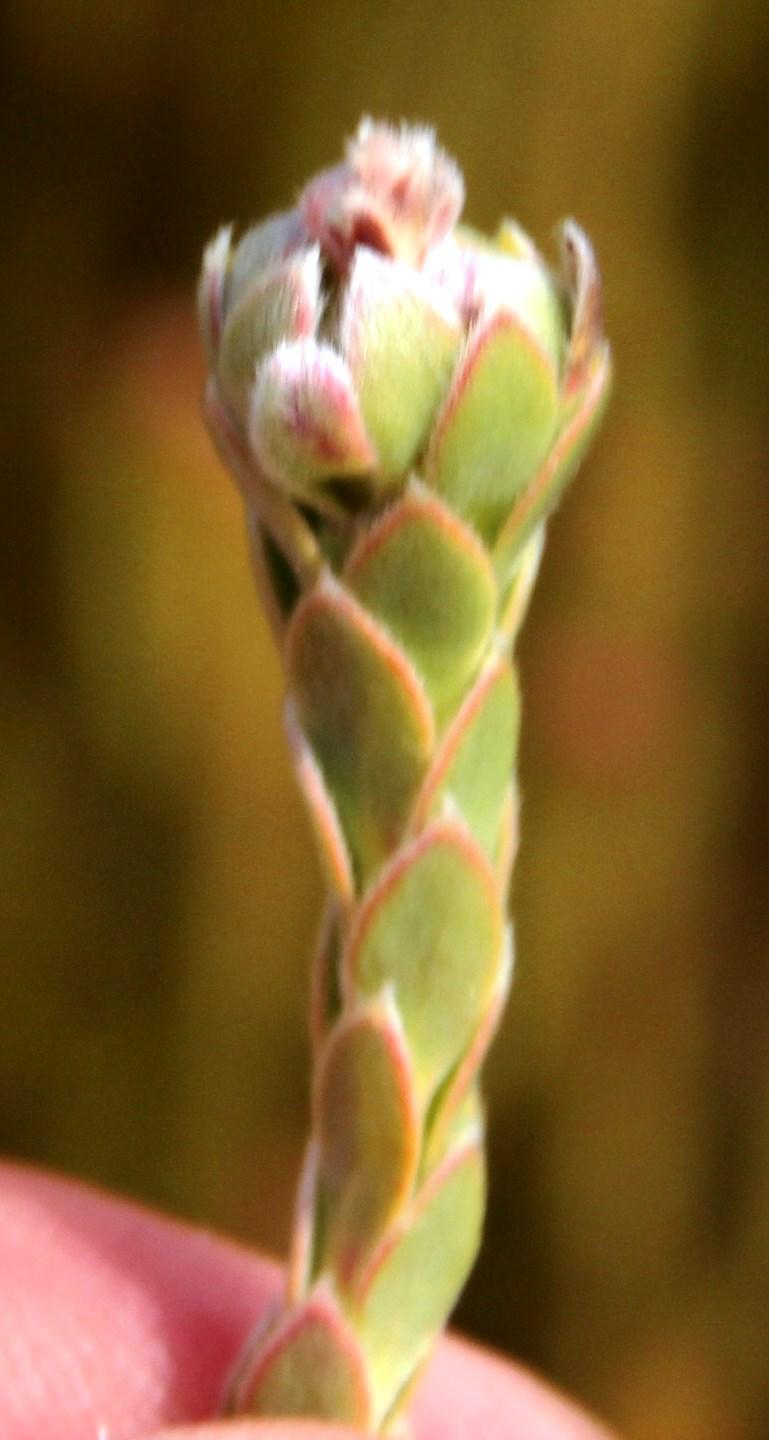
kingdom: Plantae
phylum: Tracheophyta
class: Magnoliopsida
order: Proteales
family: Proteaceae
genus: Leucadendron
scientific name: Leucadendron dubium
